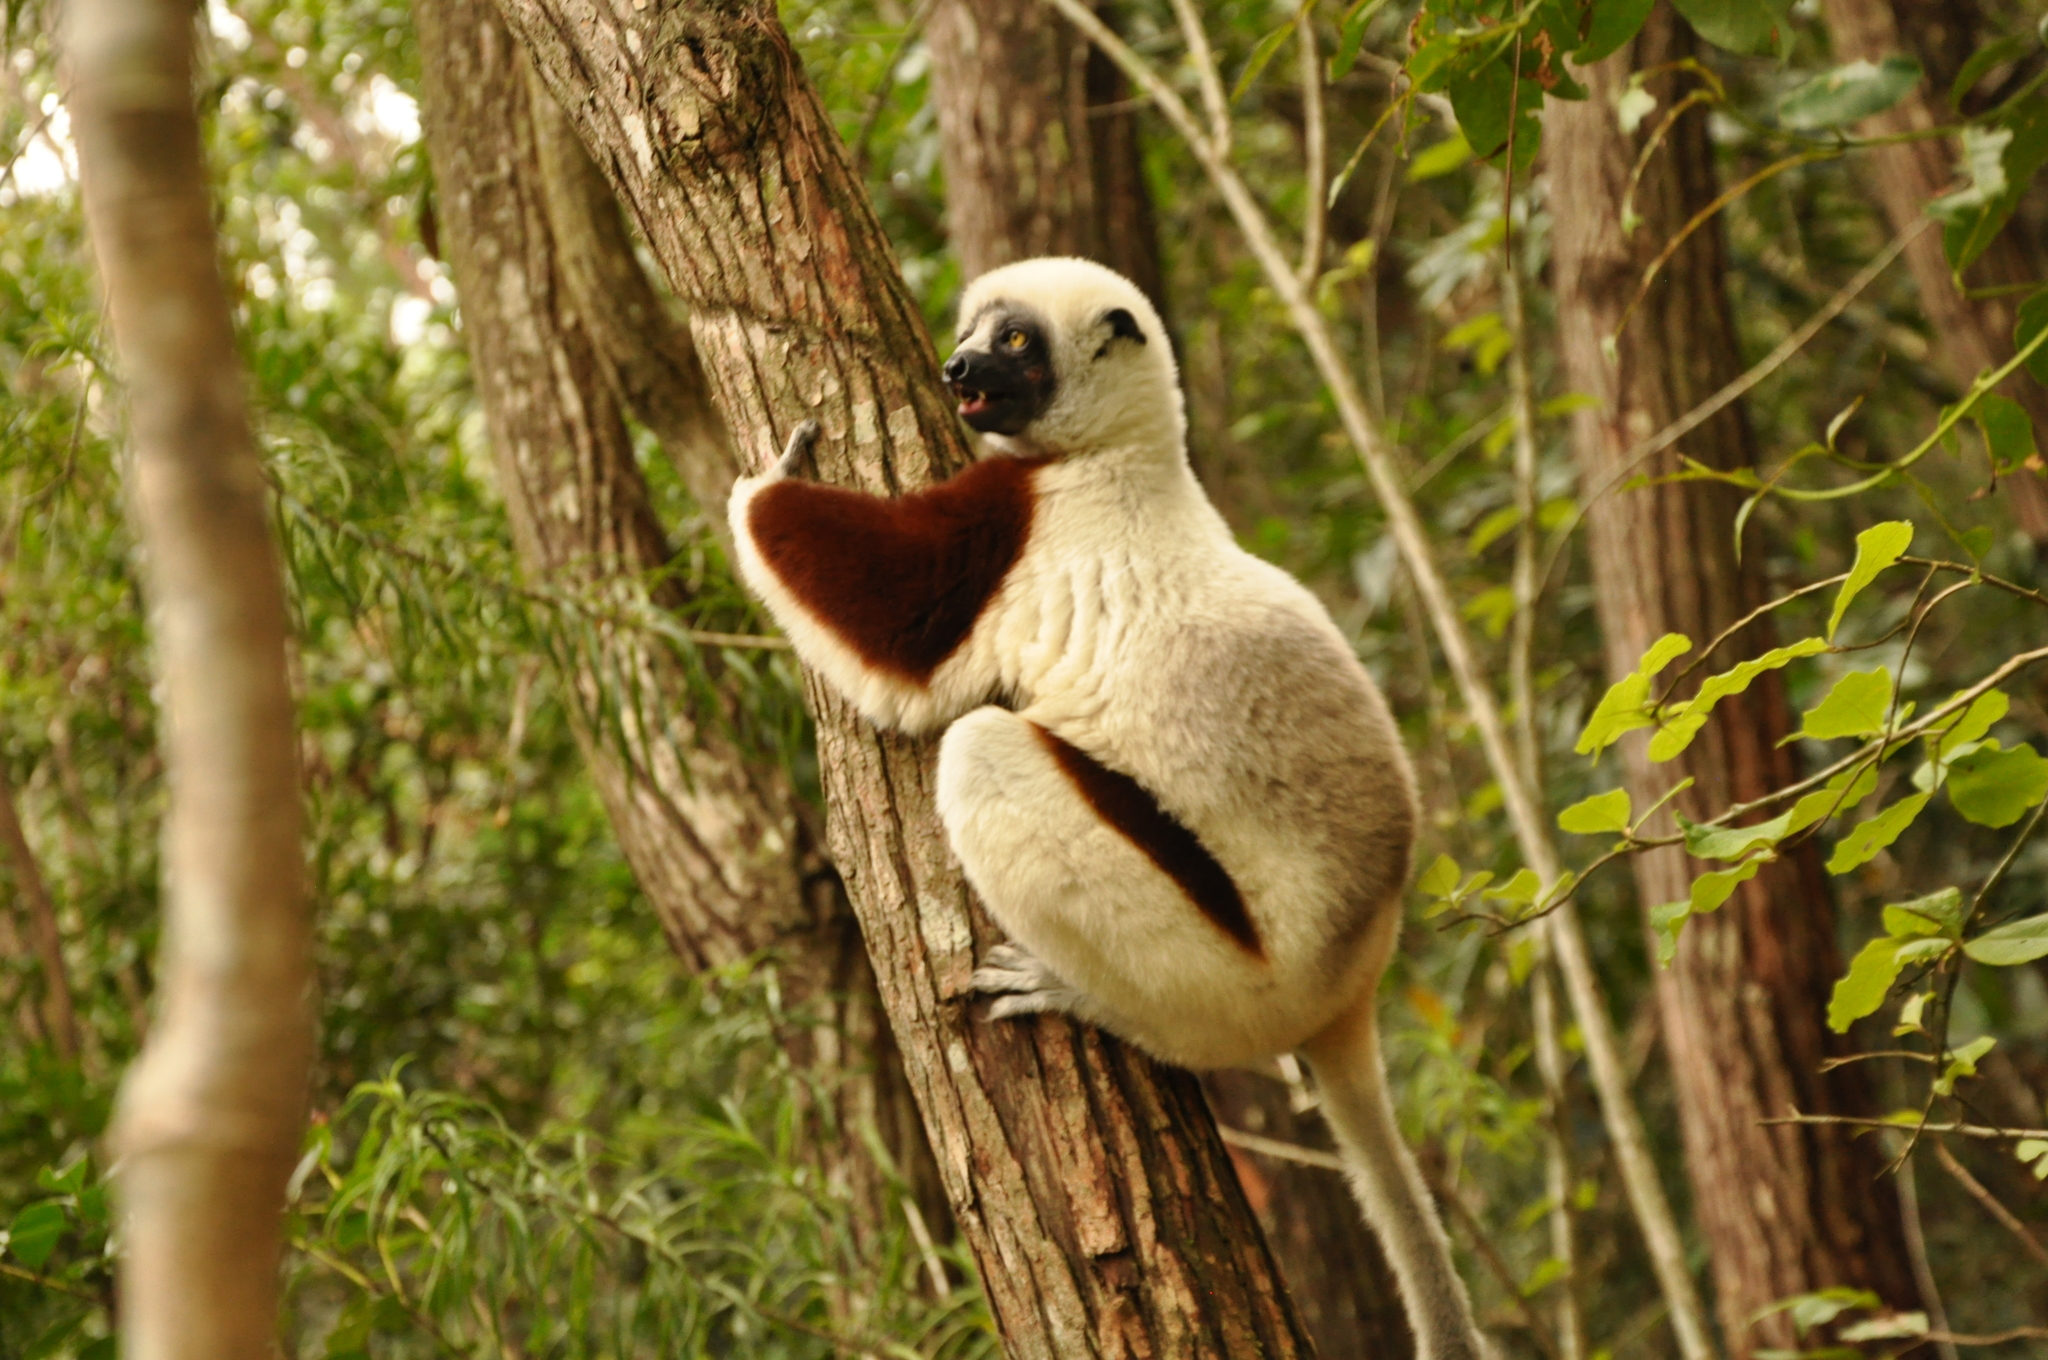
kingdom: Animalia
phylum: Chordata
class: Mammalia
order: Primates
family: Indriidae
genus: Propithecus
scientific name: Propithecus coquereli
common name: Coquerel's sifaka
